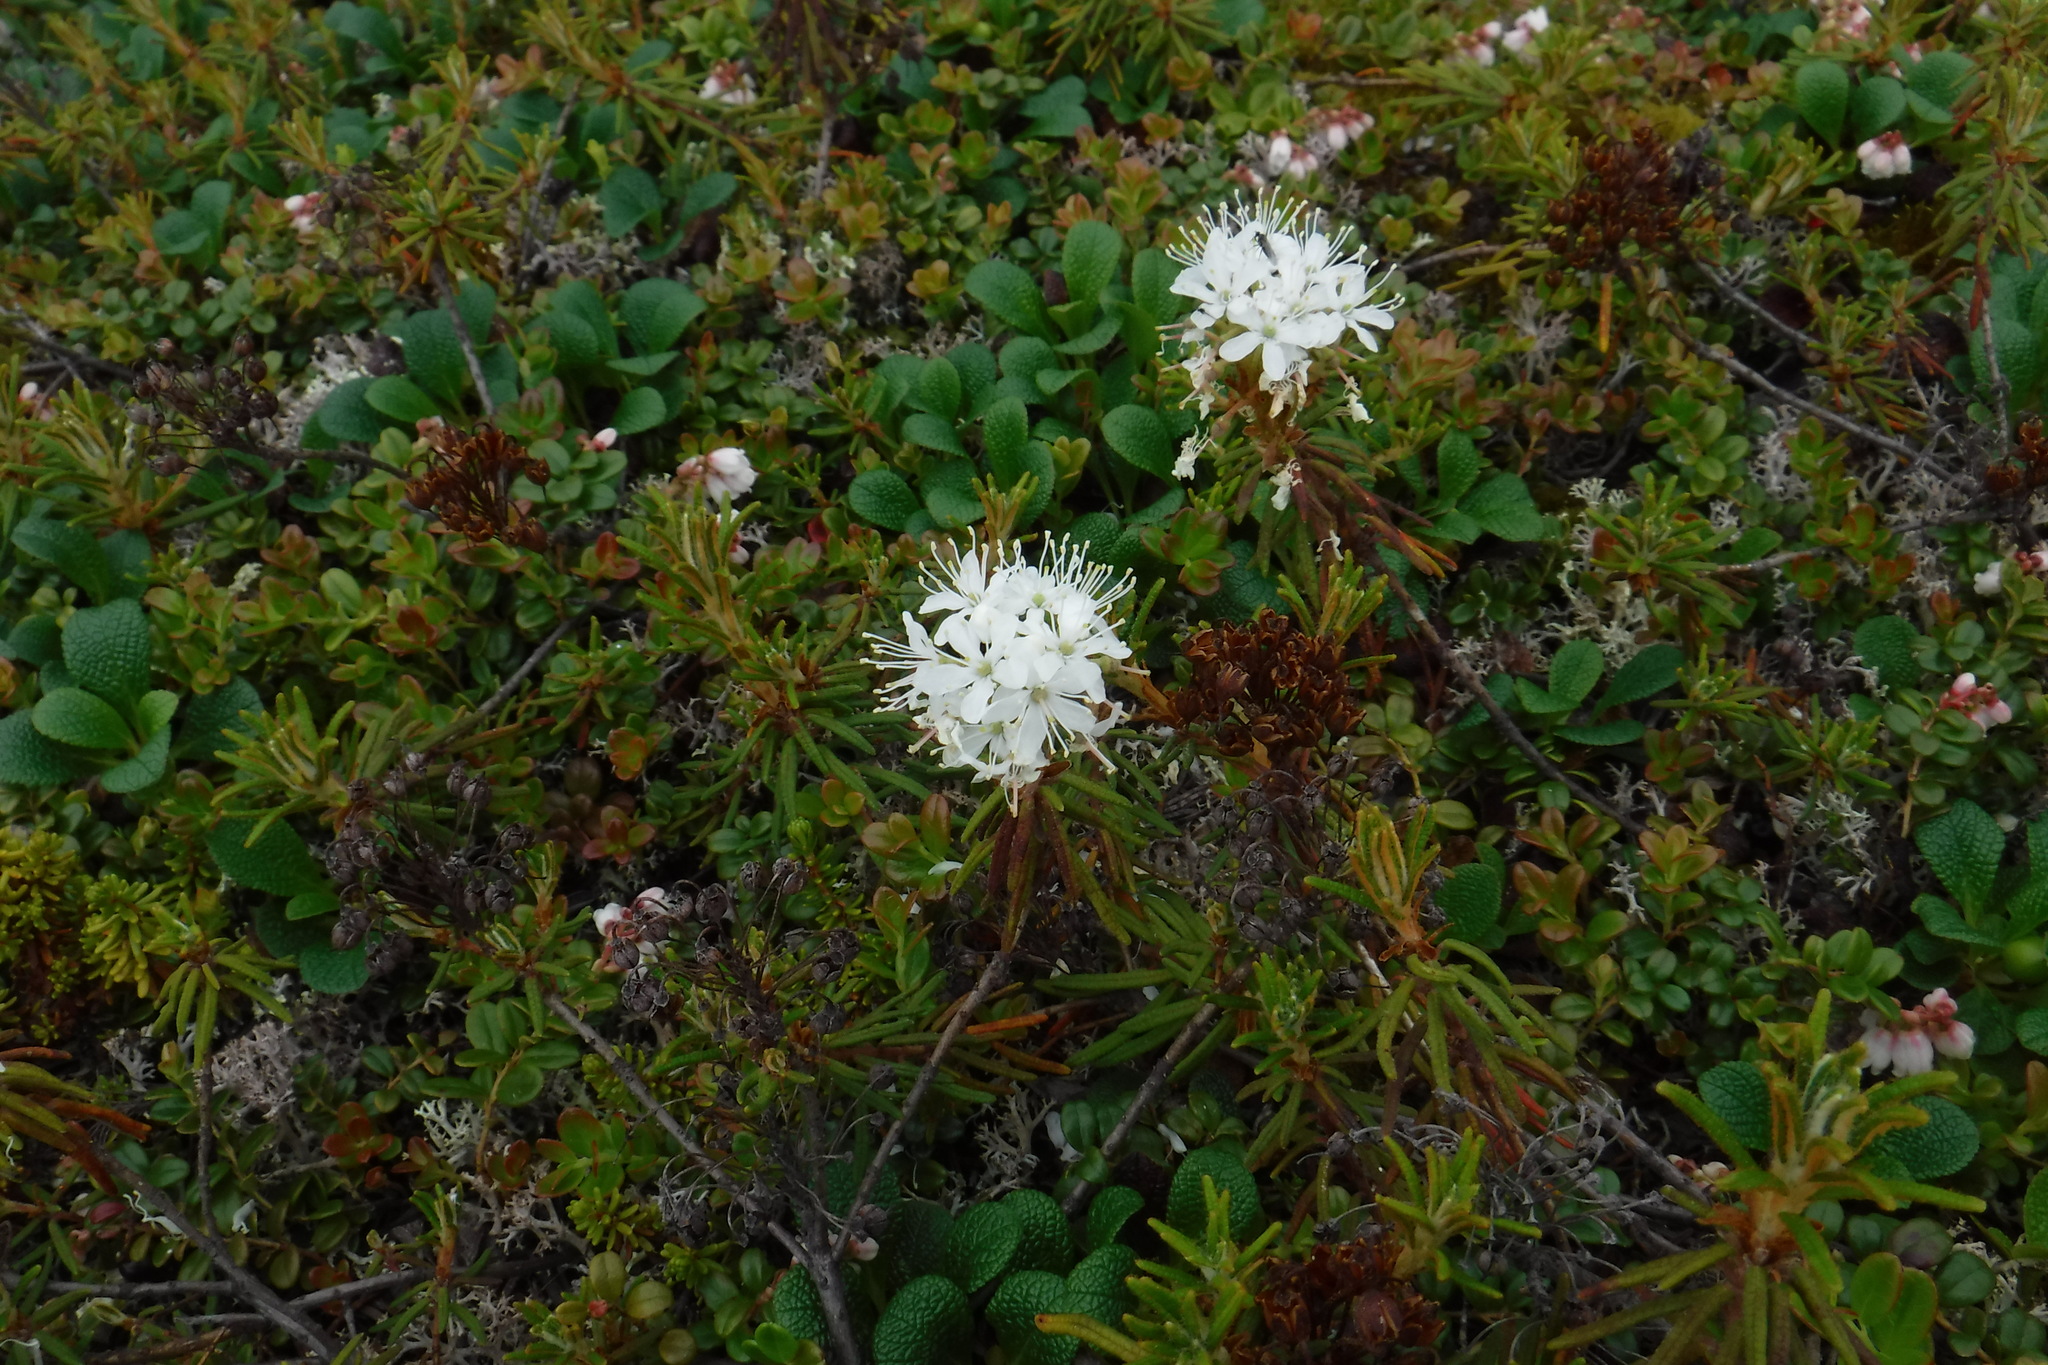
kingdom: Plantae
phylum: Tracheophyta
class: Magnoliopsida
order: Ericales
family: Ericaceae
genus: Rhododendron
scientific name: Rhododendron tomentosum
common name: Marsh labrador tea
